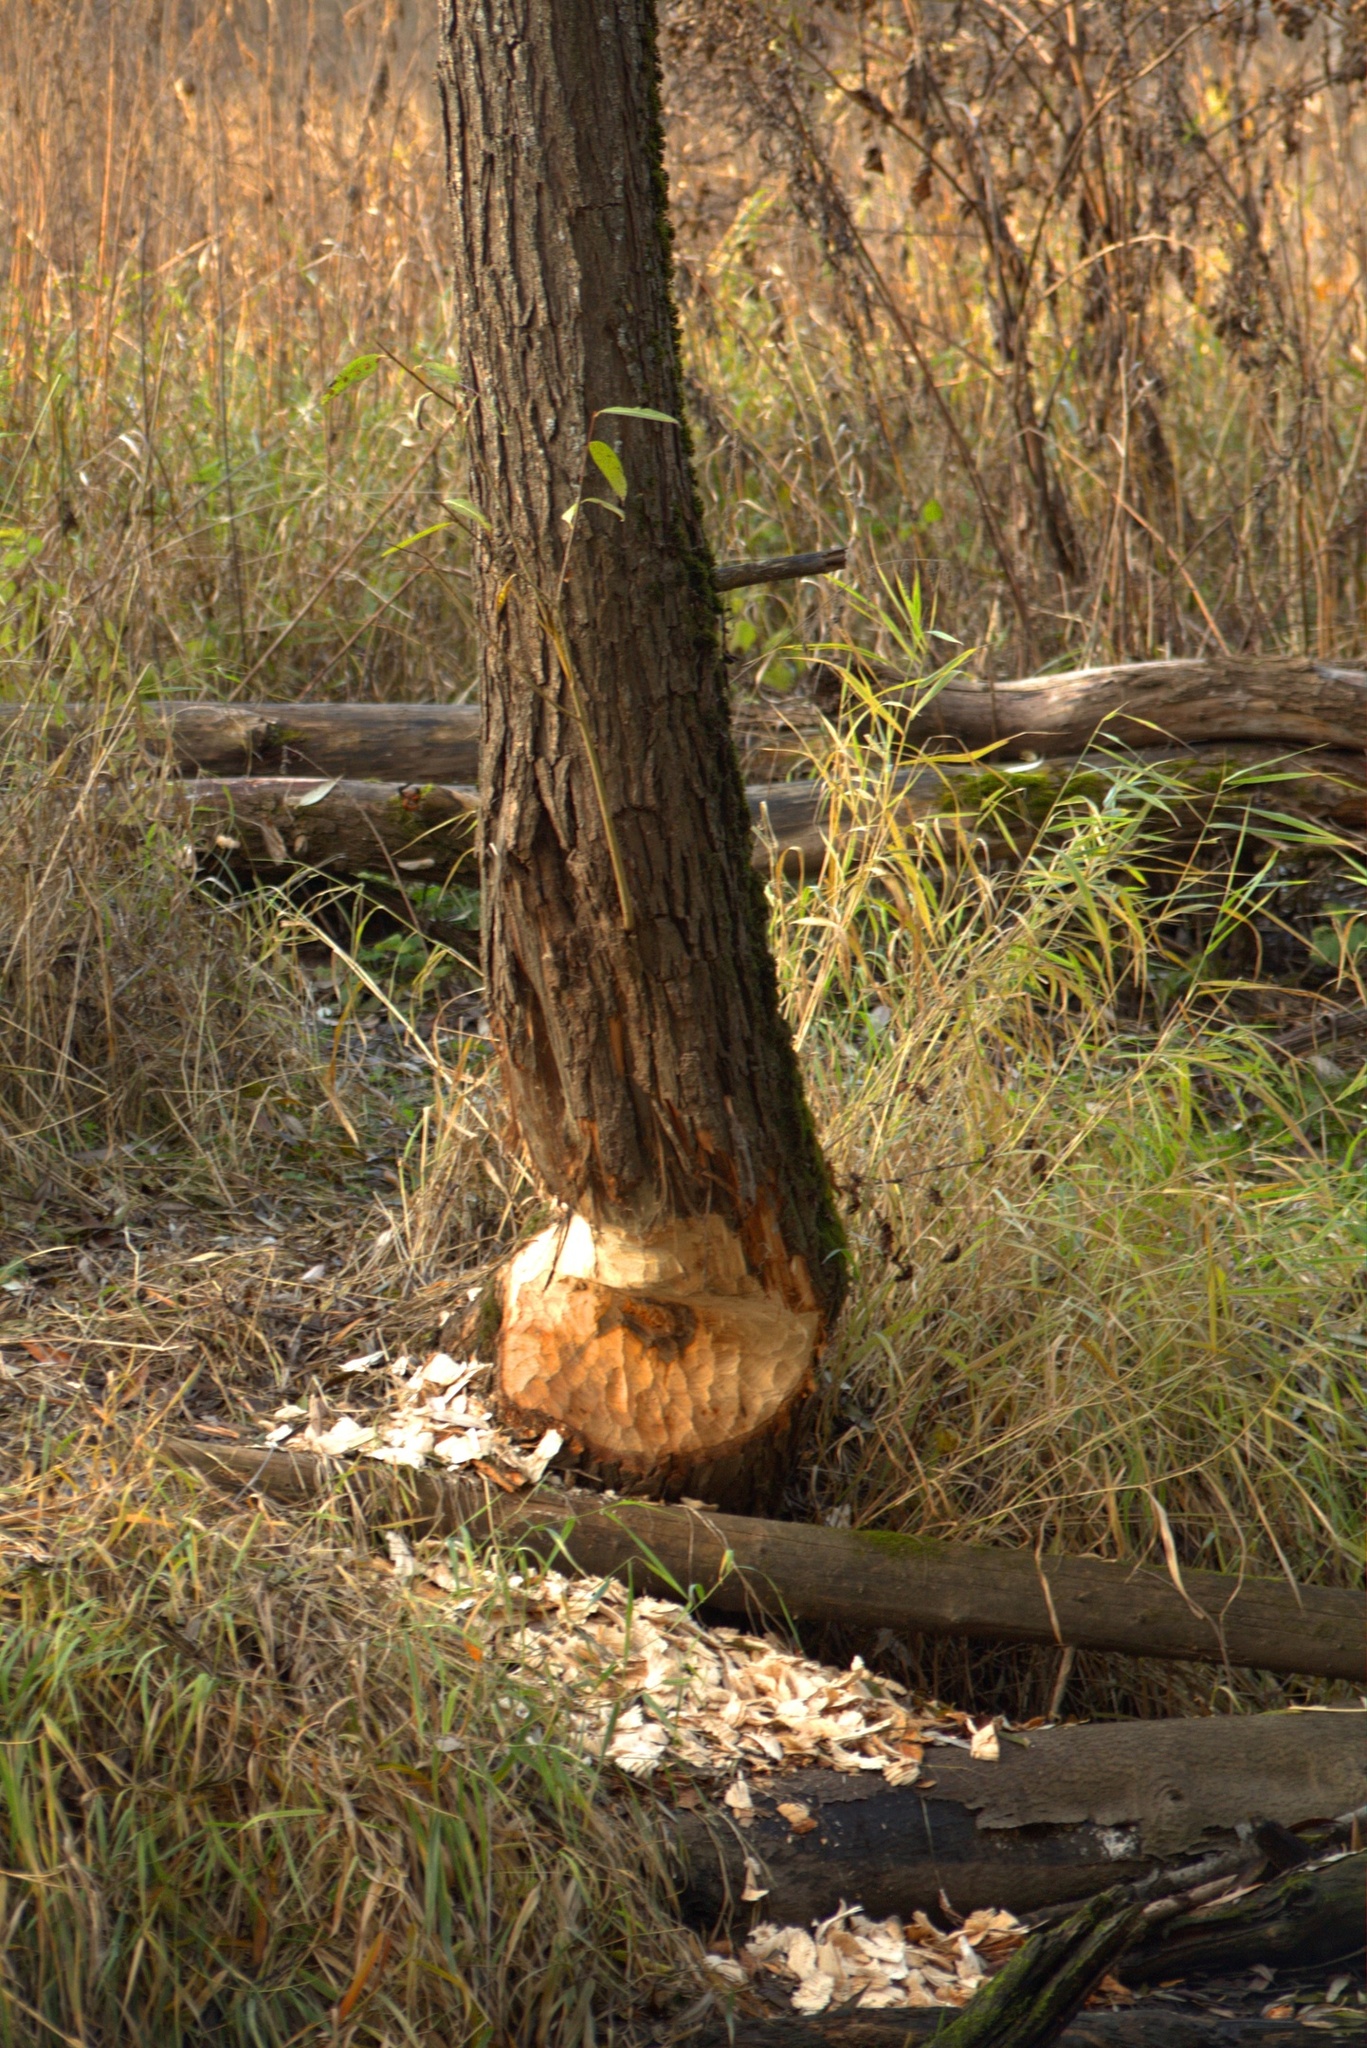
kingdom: Animalia
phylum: Chordata
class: Mammalia
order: Rodentia
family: Castoridae
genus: Castor
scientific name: Castor fiber
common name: Eurasian beaver
